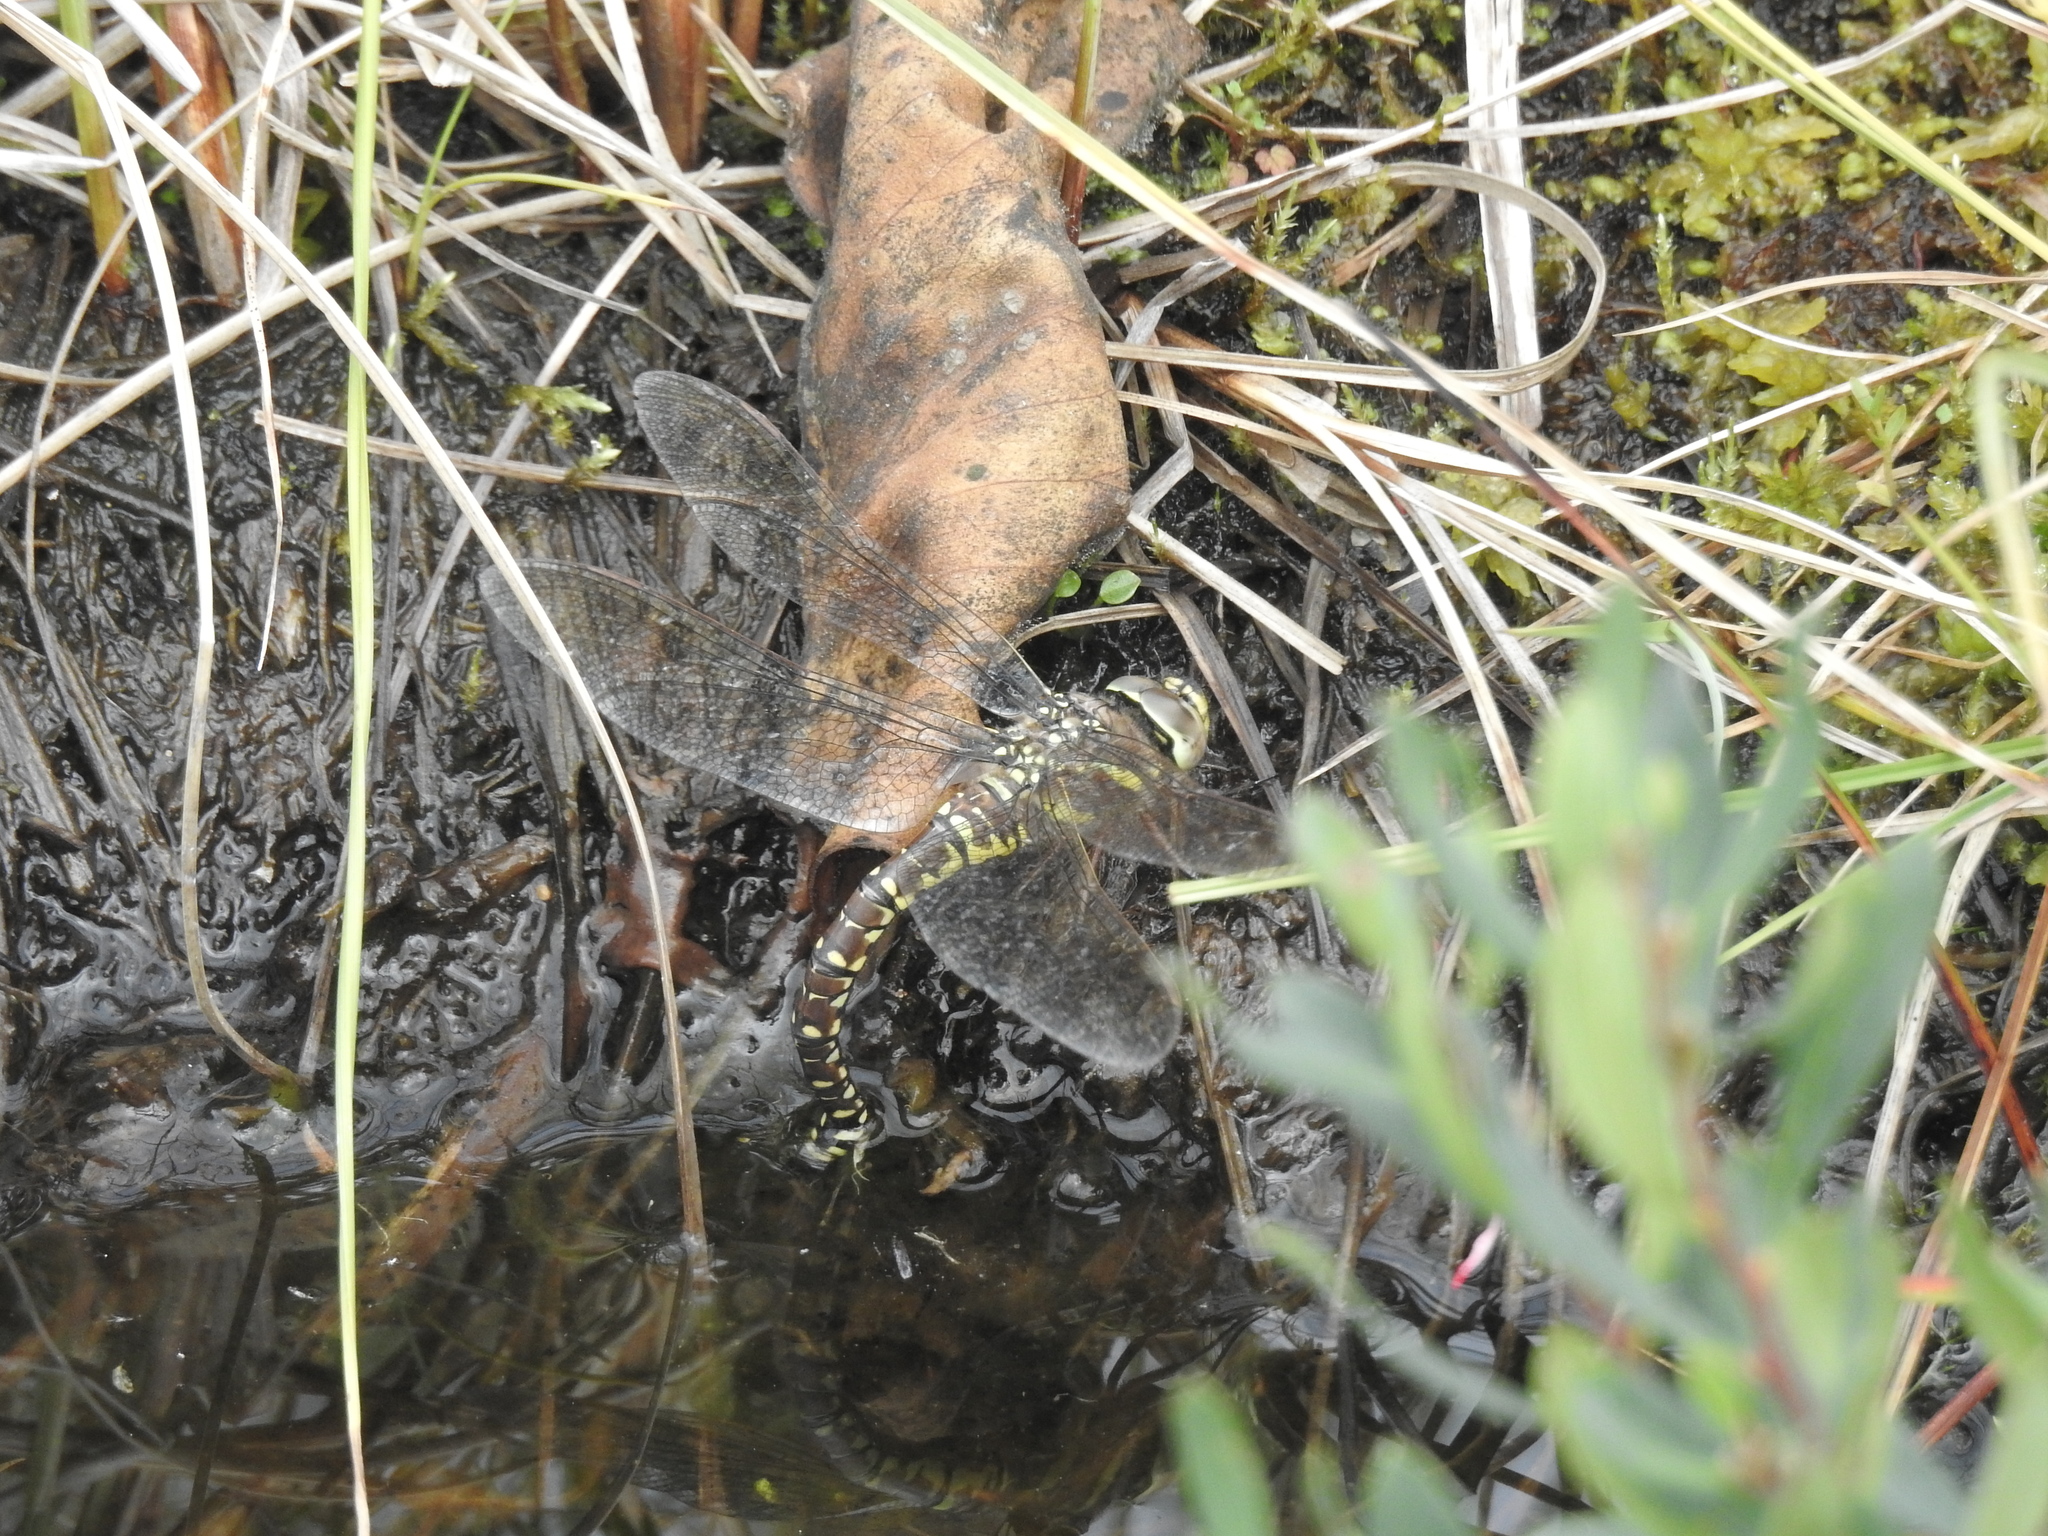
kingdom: Animalia
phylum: Arthropoda
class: Insecta
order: Odonata
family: Aeshnidae
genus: Aeshna
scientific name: Aeshna juncea
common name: Moorland hawker
